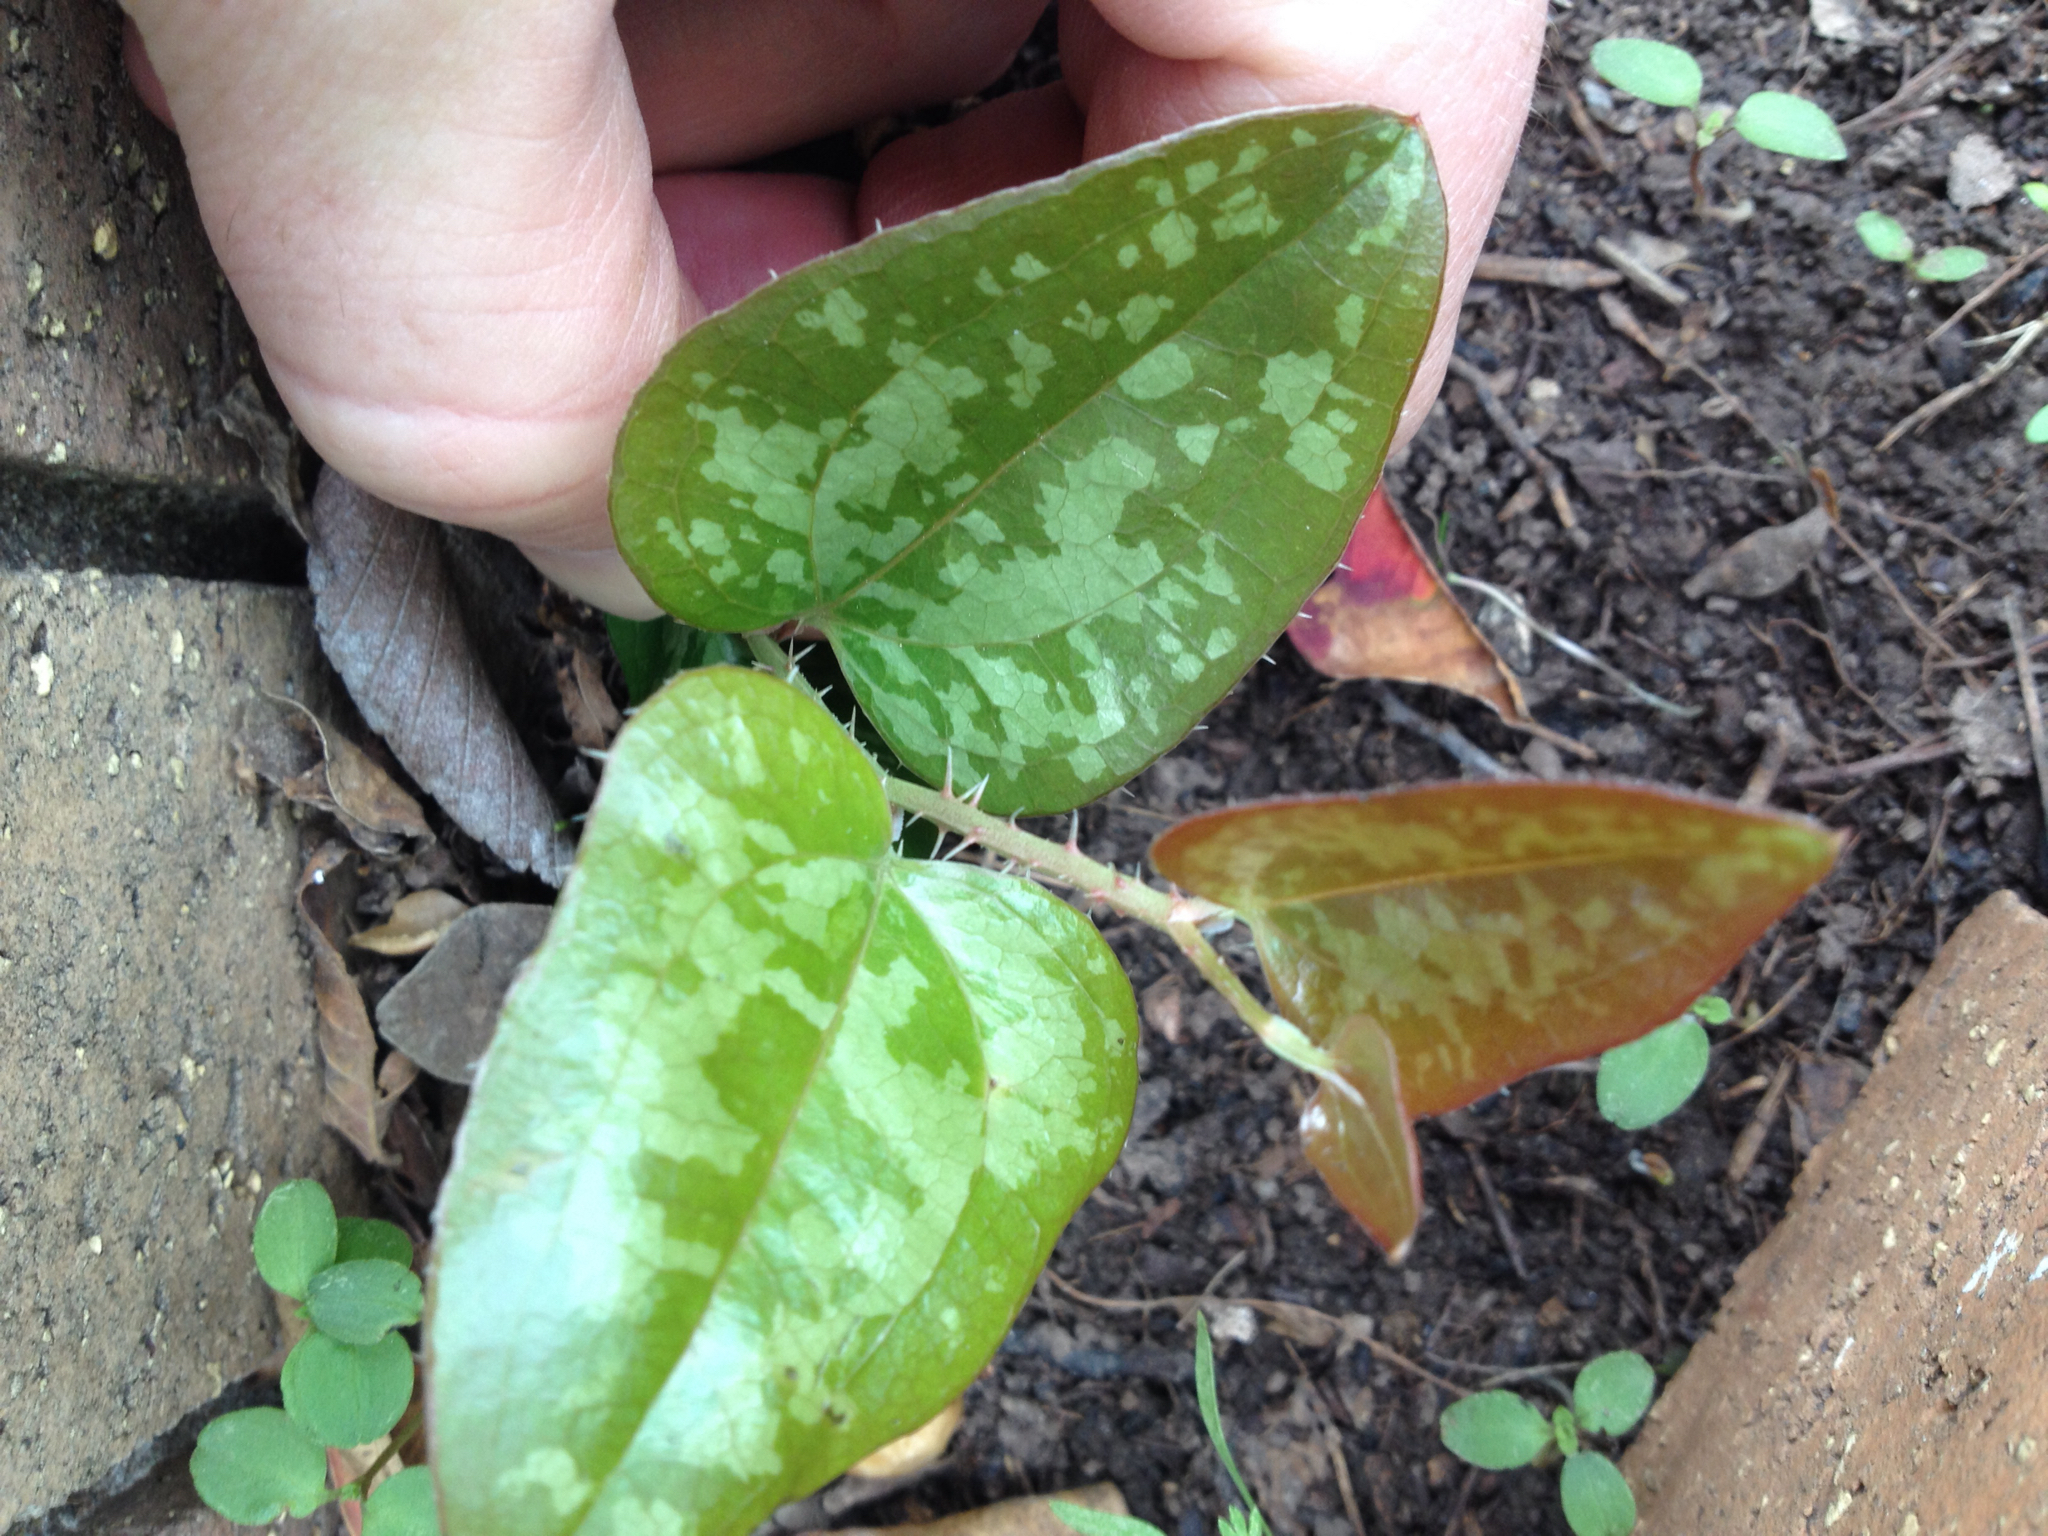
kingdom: Plantae
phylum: Tracheophyta
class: Liliopsida
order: Liliales
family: Smilacaceae
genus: Smilax
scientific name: Smilax bona-nox
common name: Catbrier
